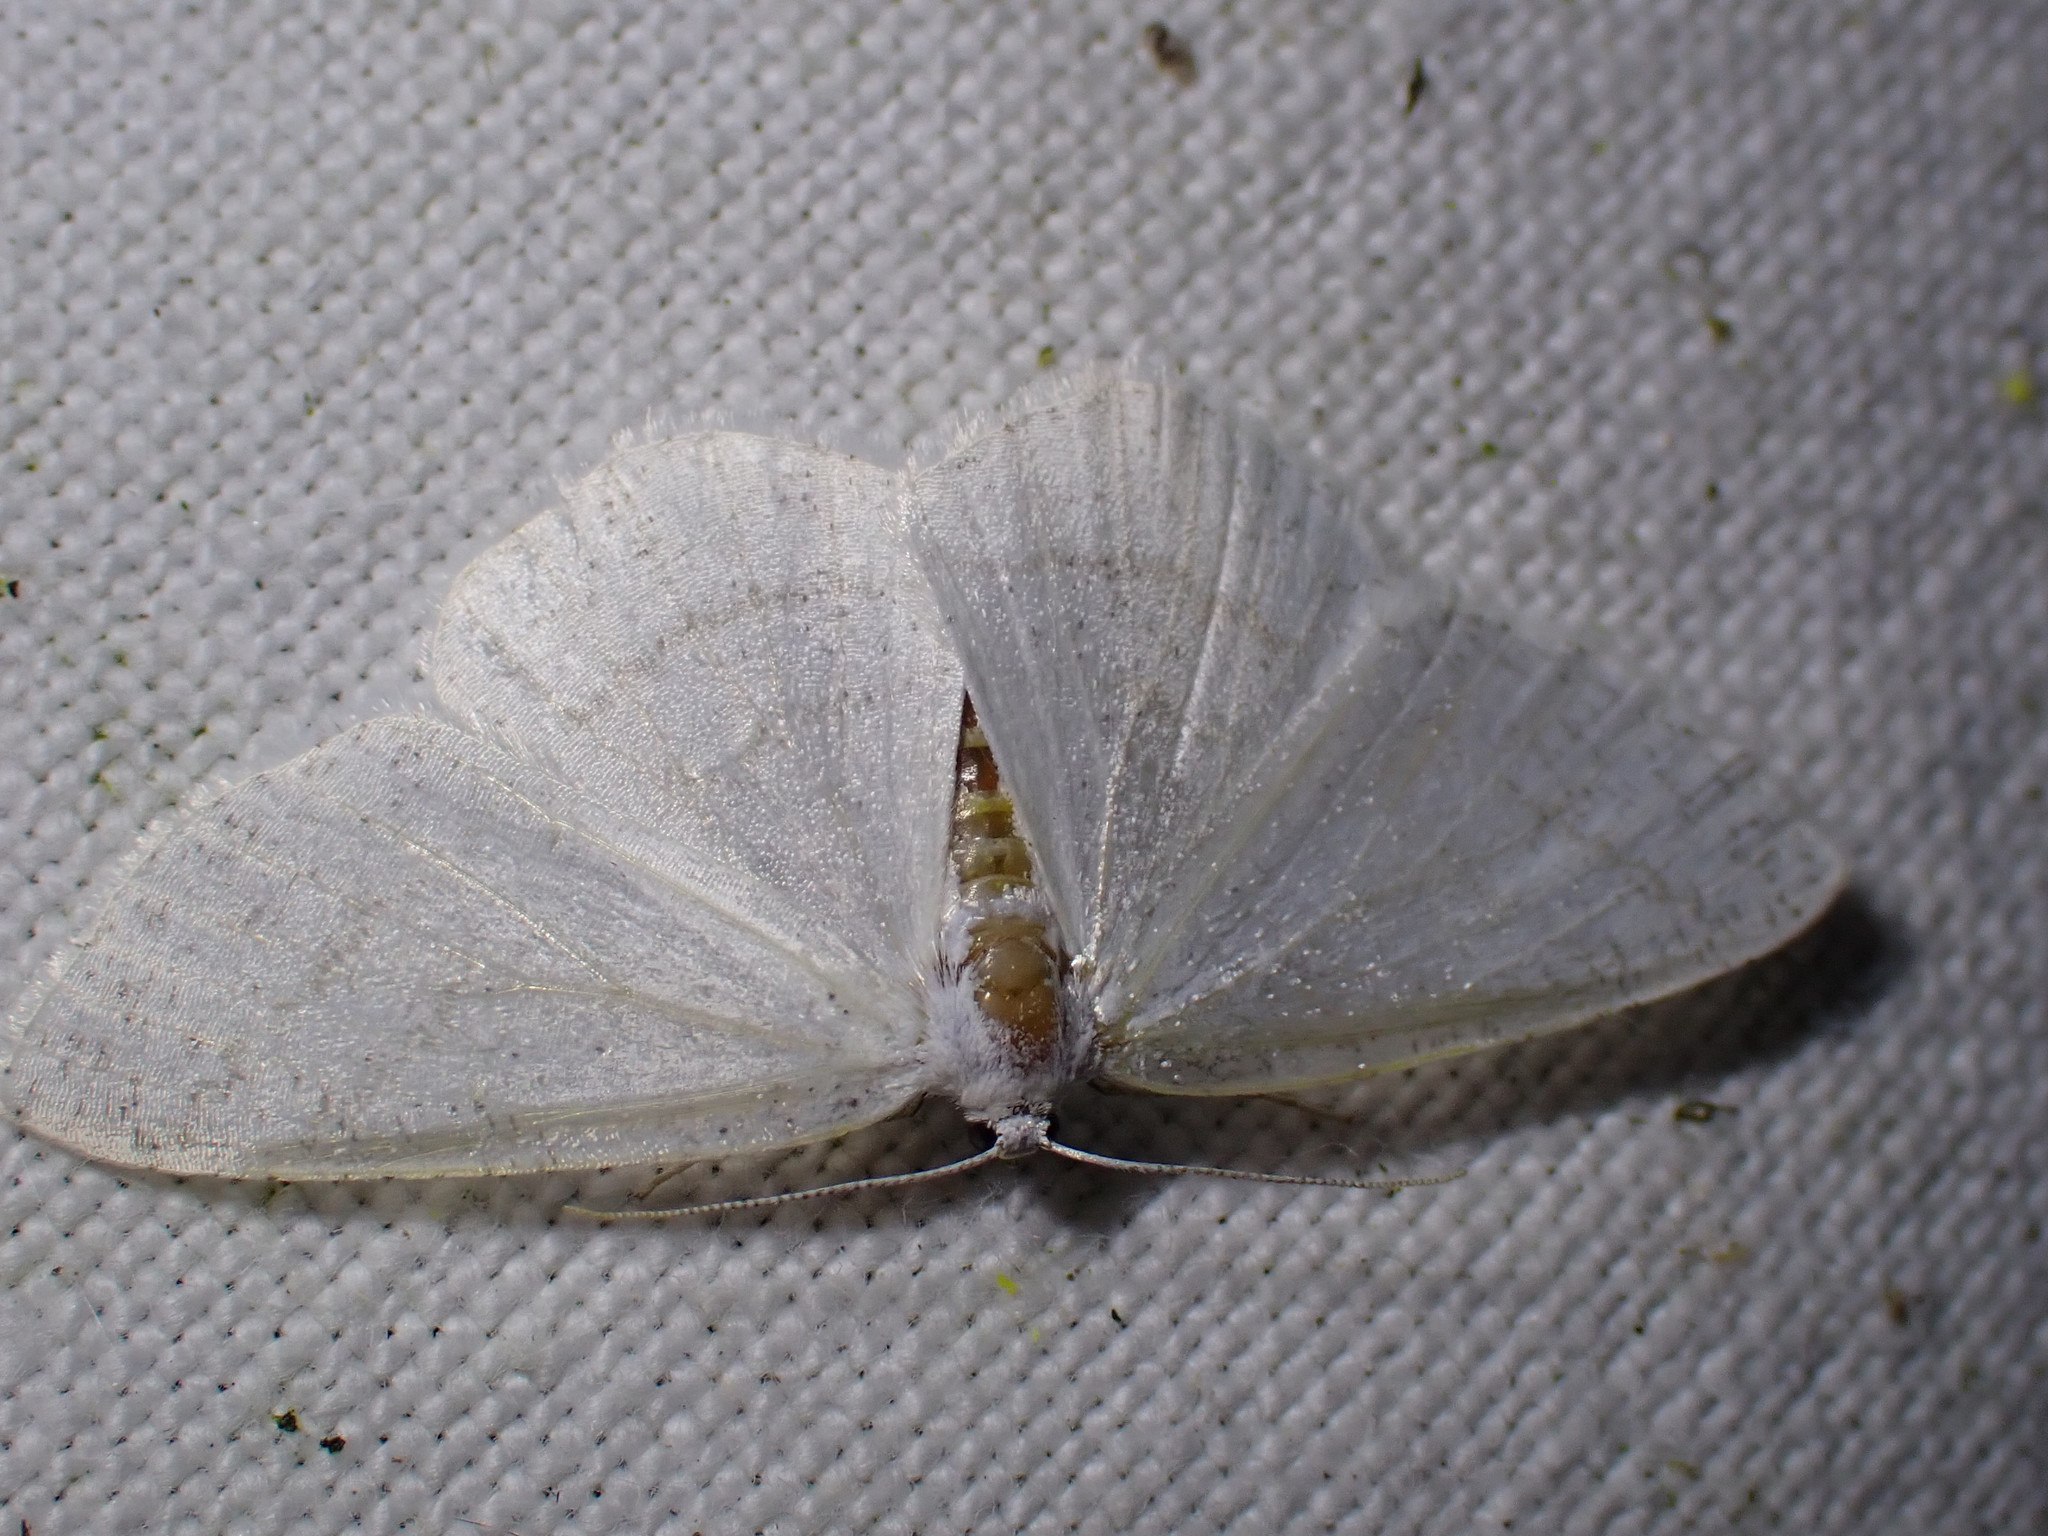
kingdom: Animalia
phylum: Arthropoda
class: Insecta
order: Lepidoptera
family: Geometridae
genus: Cabera
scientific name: Cabera pusaria
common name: Common white wave
